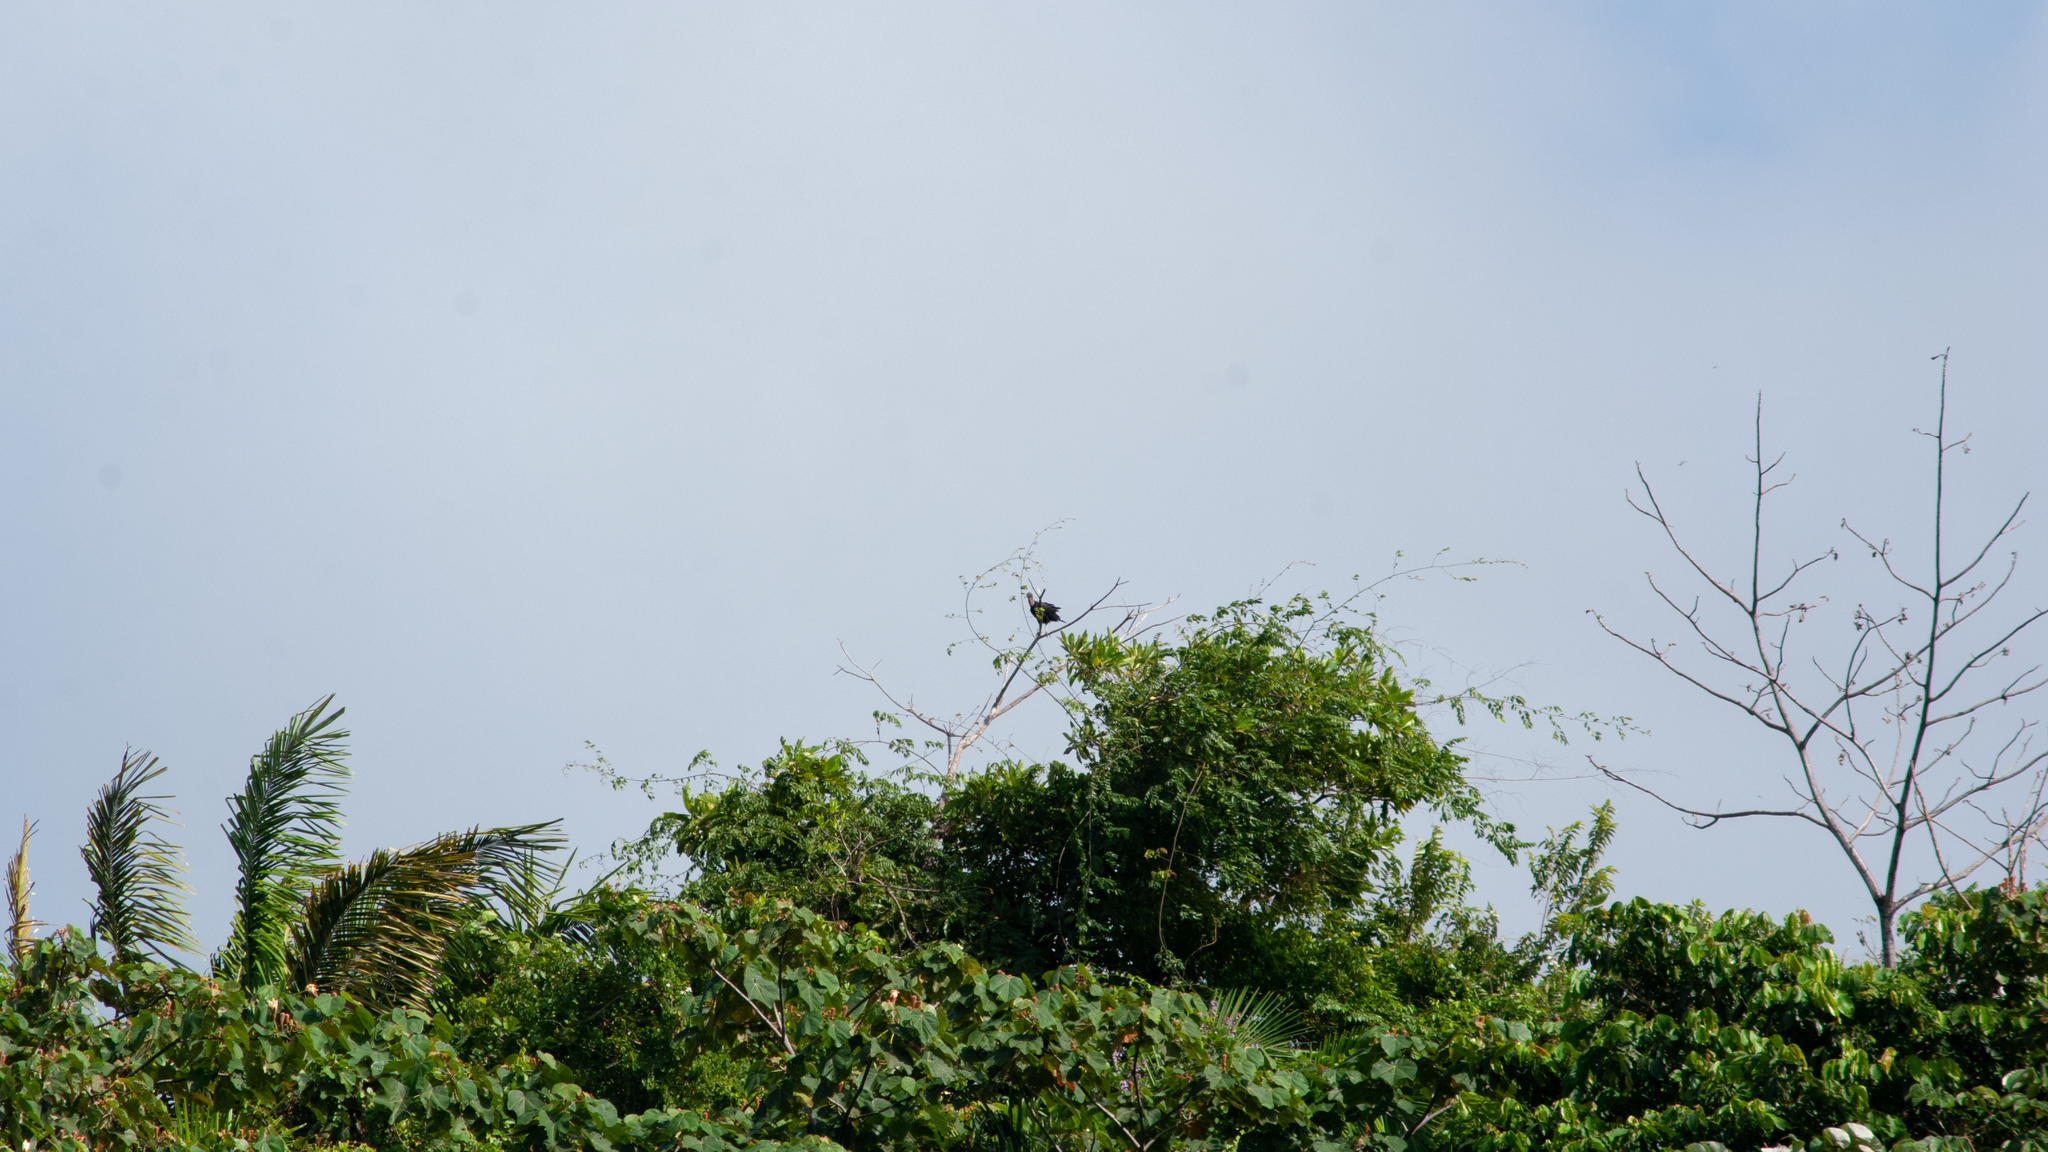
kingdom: Animalia
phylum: Chordata
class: Aves
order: Accipitriformes
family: Cathartidae
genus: Coragyps
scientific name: Coragyps atratus
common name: Black vulture
